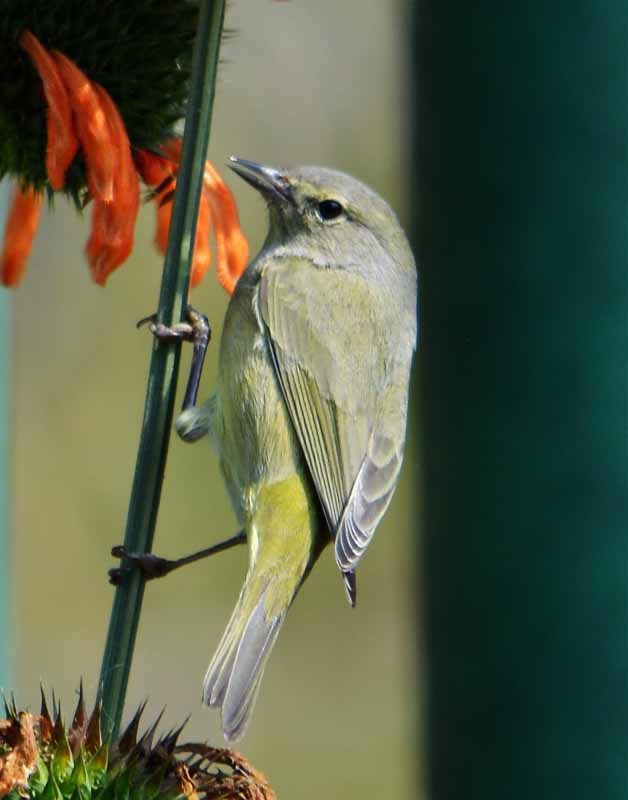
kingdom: Animalia
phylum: Chordata
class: Aves
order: Passeriformes
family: Parulidae
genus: Leiothlypis
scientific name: Leiothlypis celata
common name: Orange-crowned warbler
